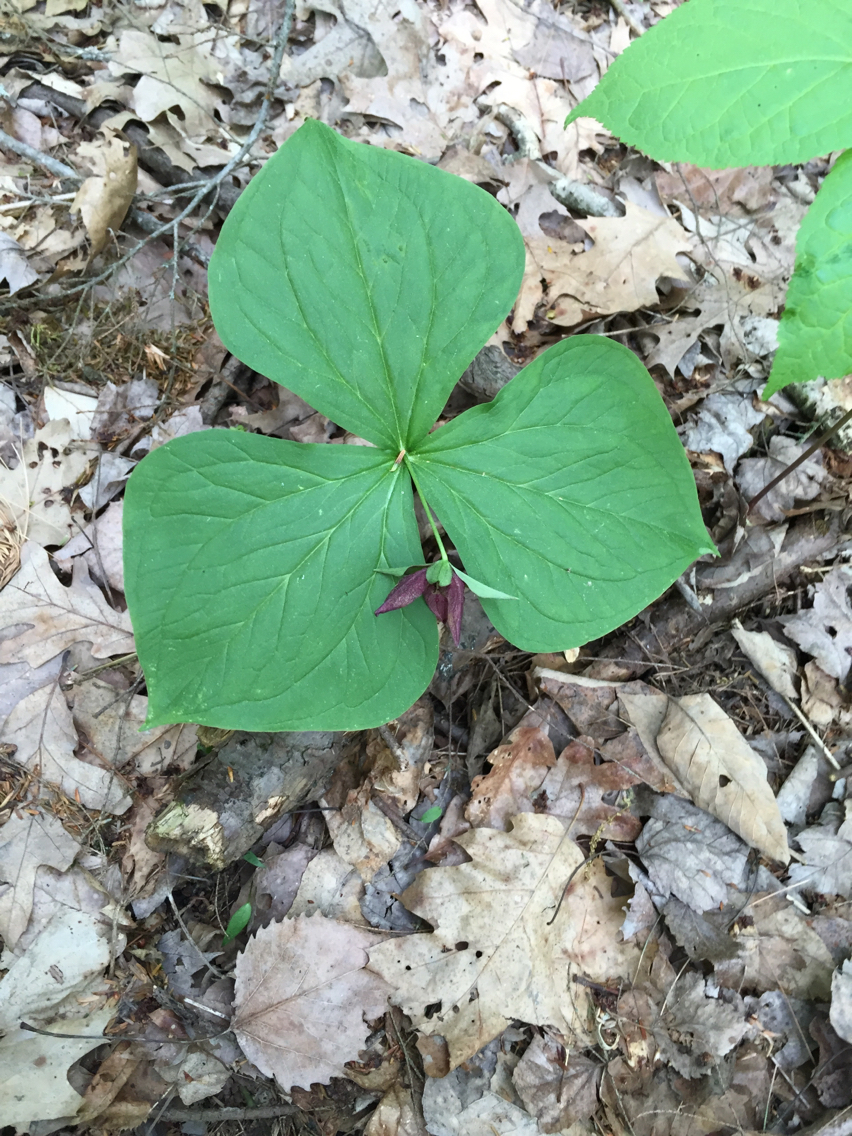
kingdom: Plantae
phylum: Tracheophyta
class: Liliopsida
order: Liliales
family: Melanthiaceae
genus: Trillium
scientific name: Trillium erectum
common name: Purple trillium
